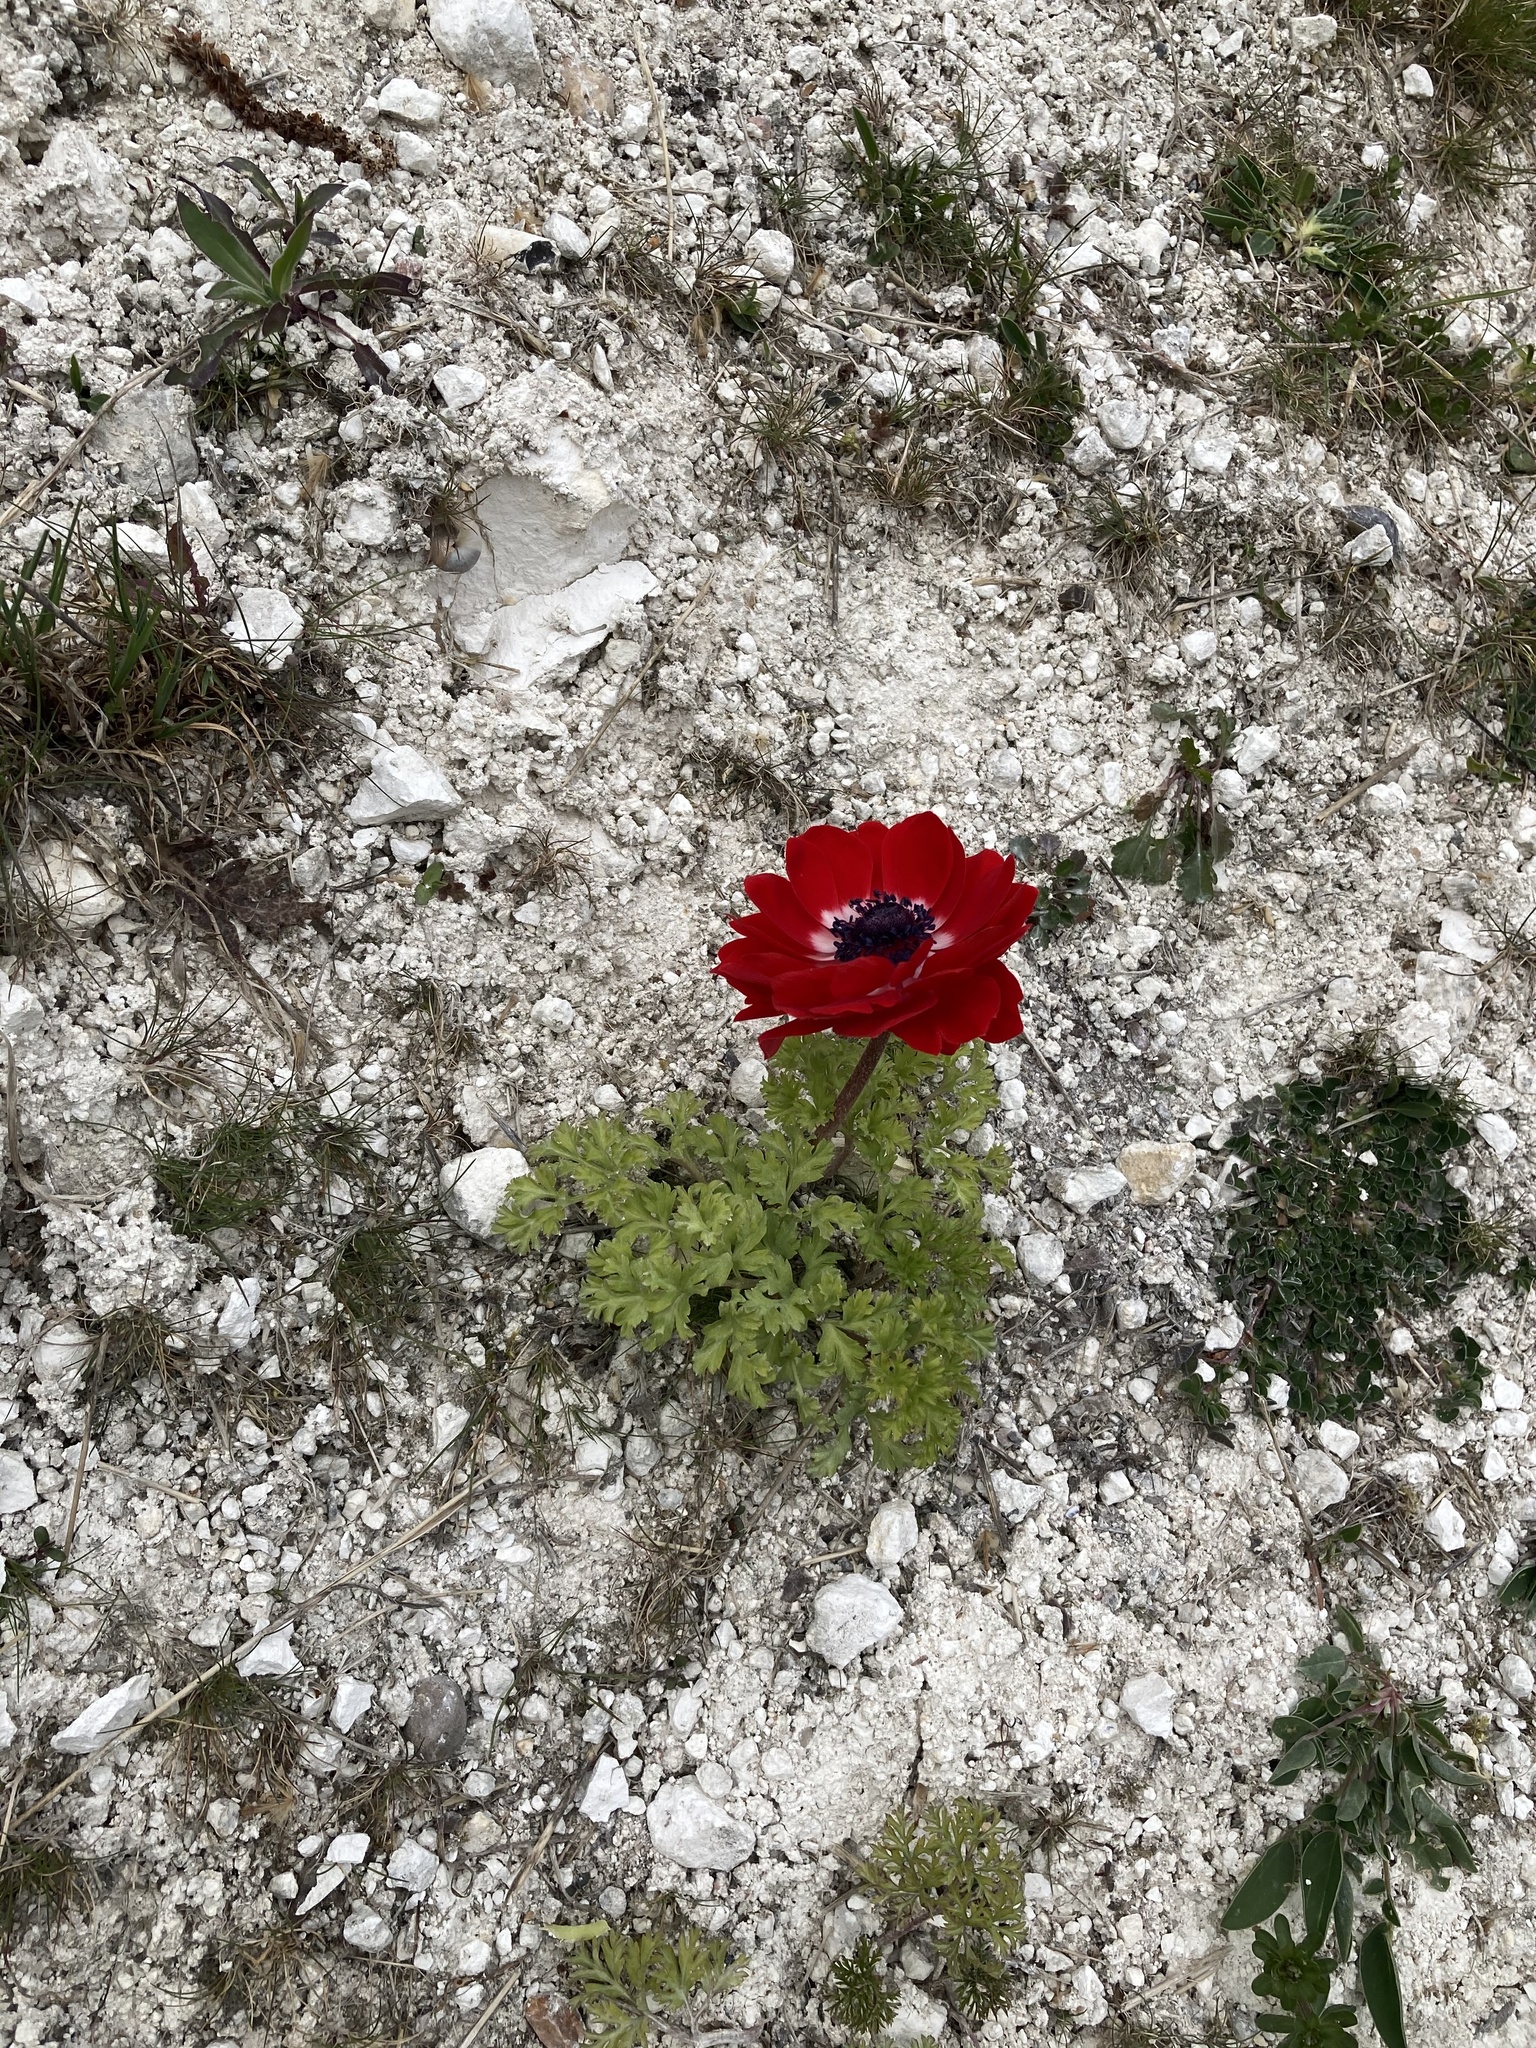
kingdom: Plantae
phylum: Tracheophyta
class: Magnoliopsida
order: Ranunculales
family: Ranunculaceae
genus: Anemone
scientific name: Anemone coronaria
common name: Poppy anemone
